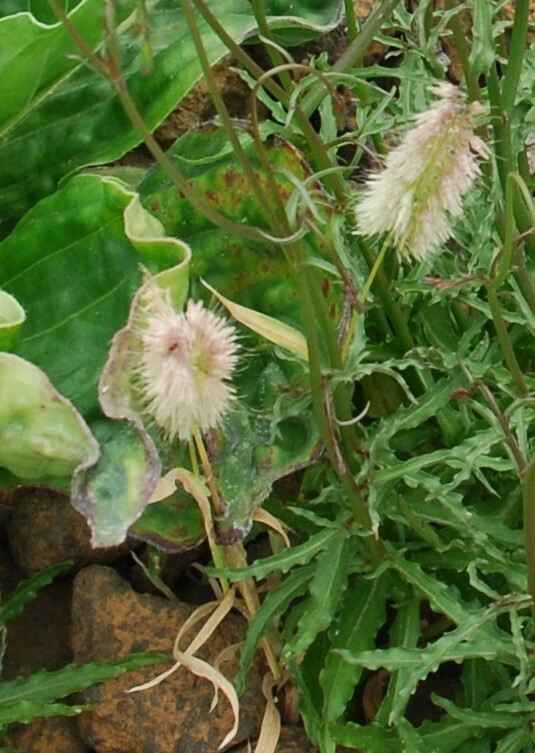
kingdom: Plantae
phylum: Tracheophyta
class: Liliopsida
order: Poales
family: Poaceae
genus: Lamarckia
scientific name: Lamarckia aurea
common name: Golden dog's-tail
